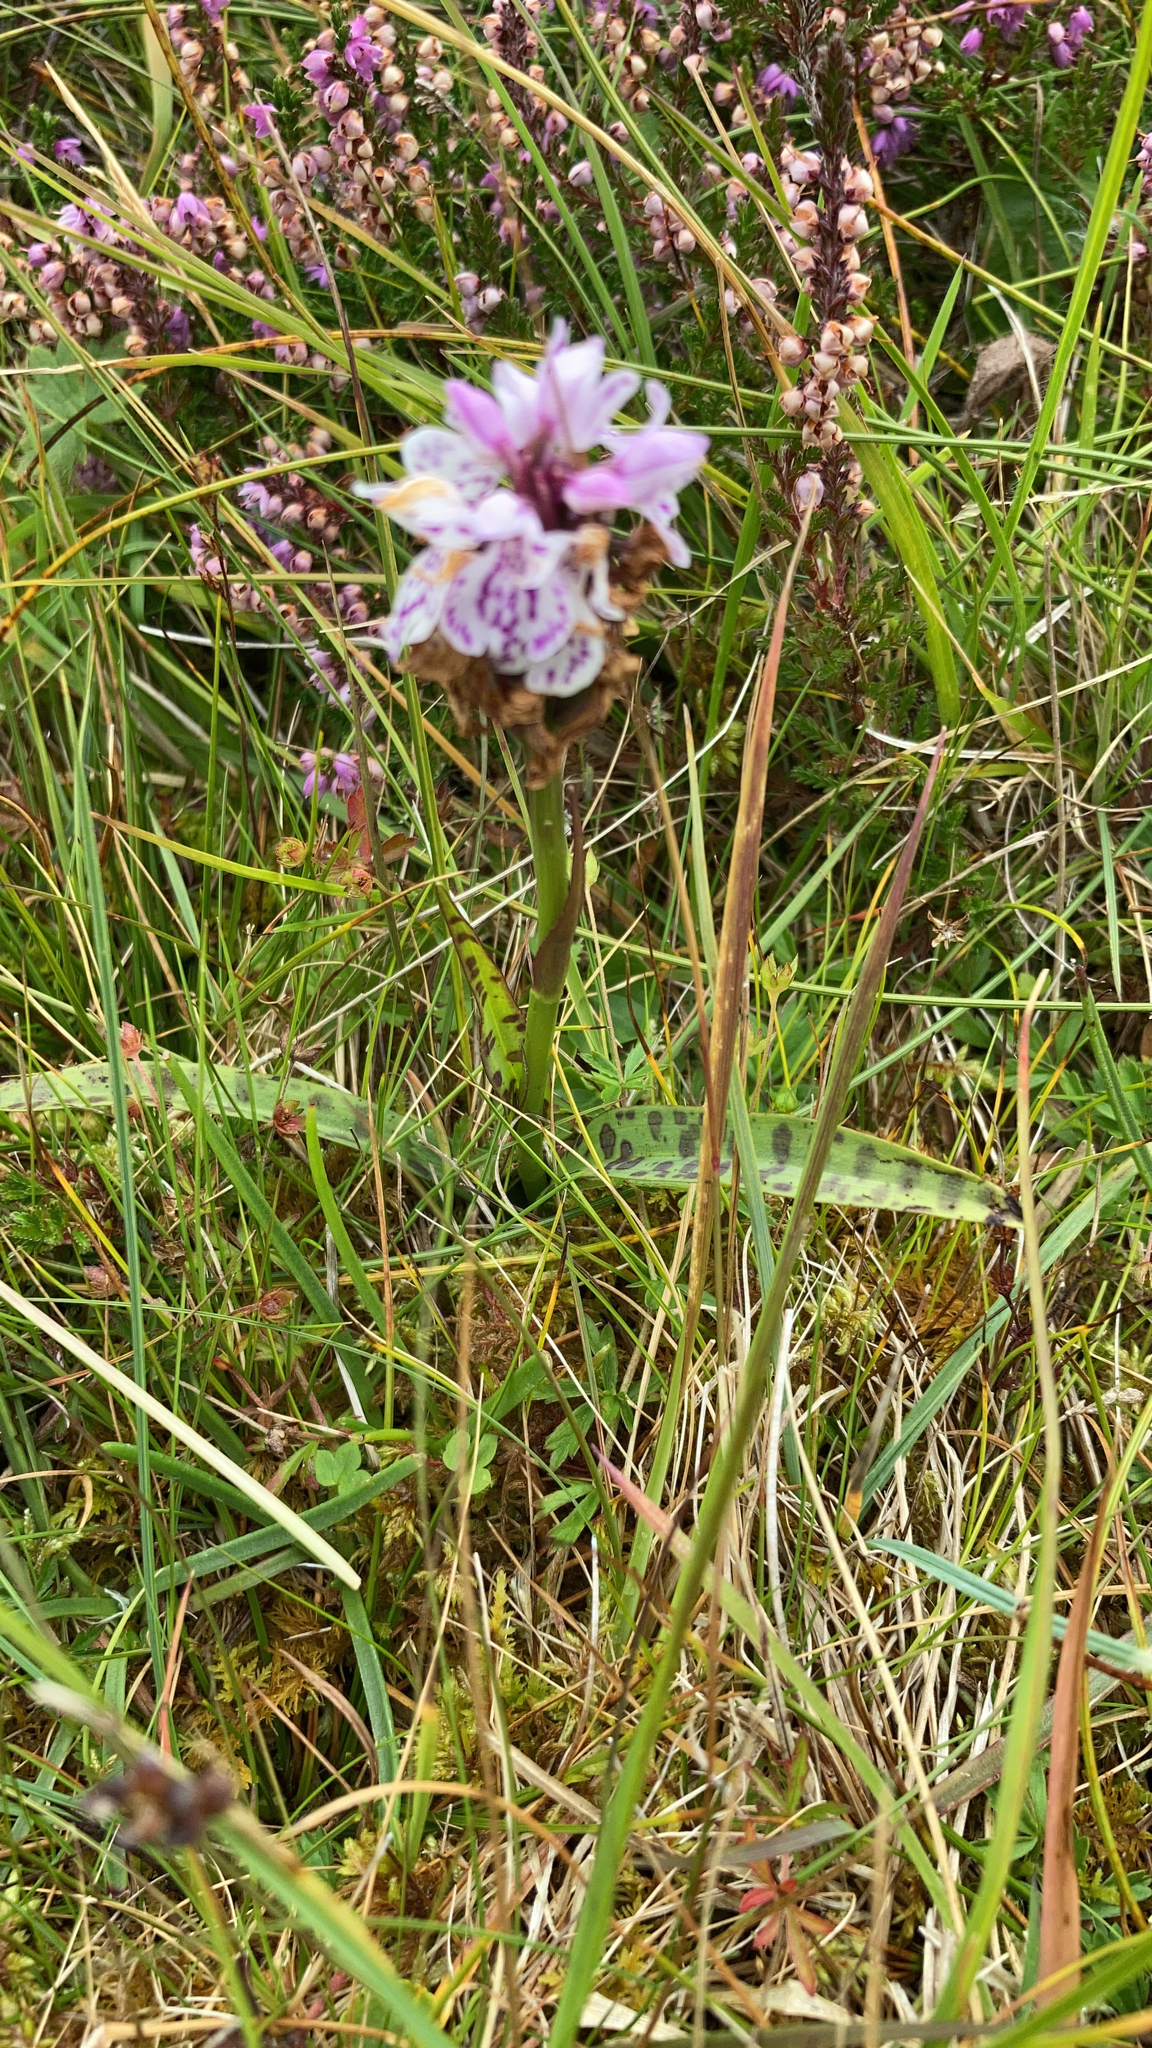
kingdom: Plantae
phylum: Tracheophyta
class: Liliopsida
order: Asparagales
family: Orchidaceae
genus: Dactylorhiza
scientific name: Dactylorhiza maculata
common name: Heath spotted-orchid
